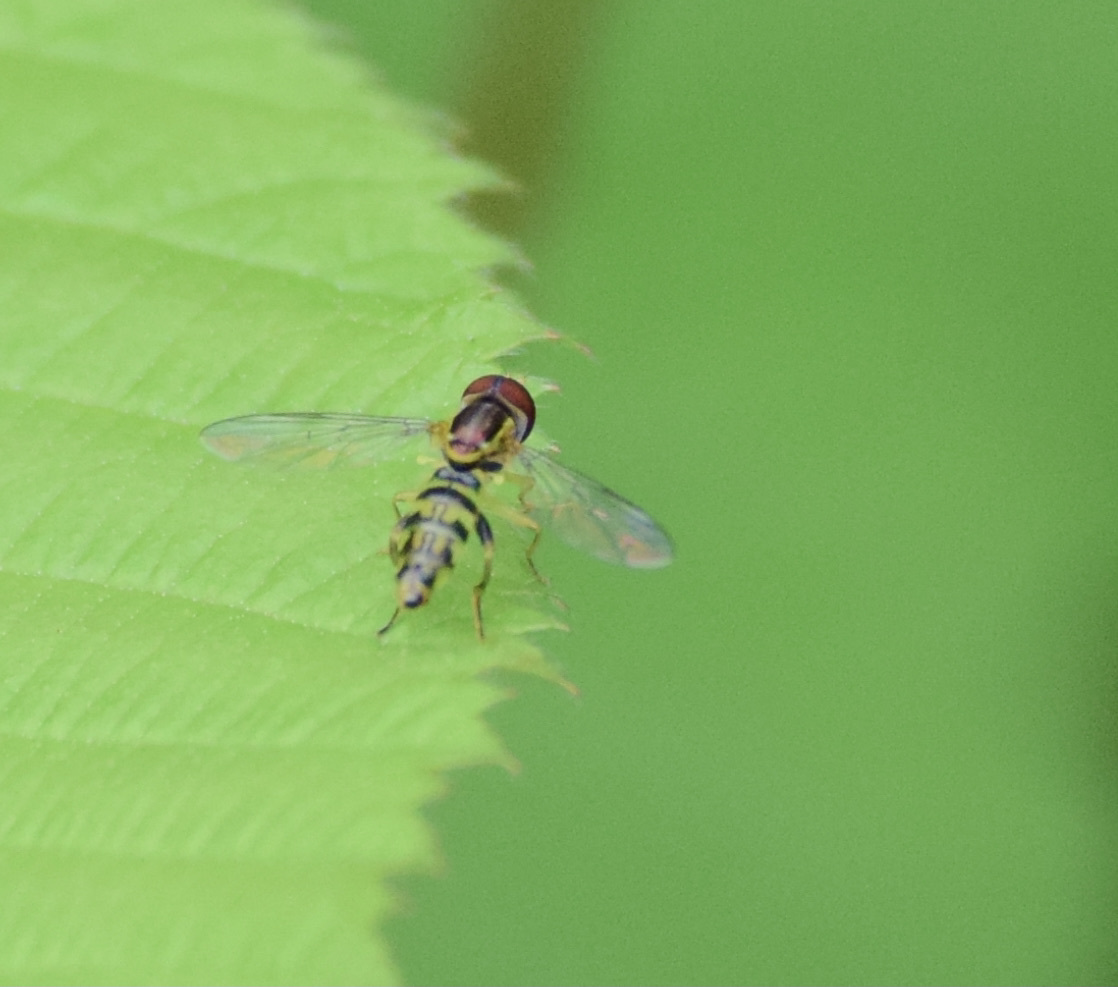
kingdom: Animalia
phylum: Arthropoda
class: Insecta
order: Diptera
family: Syrphidae
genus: Toxomerus
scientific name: Toxomerus geminatus
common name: Eastern calligrapher
